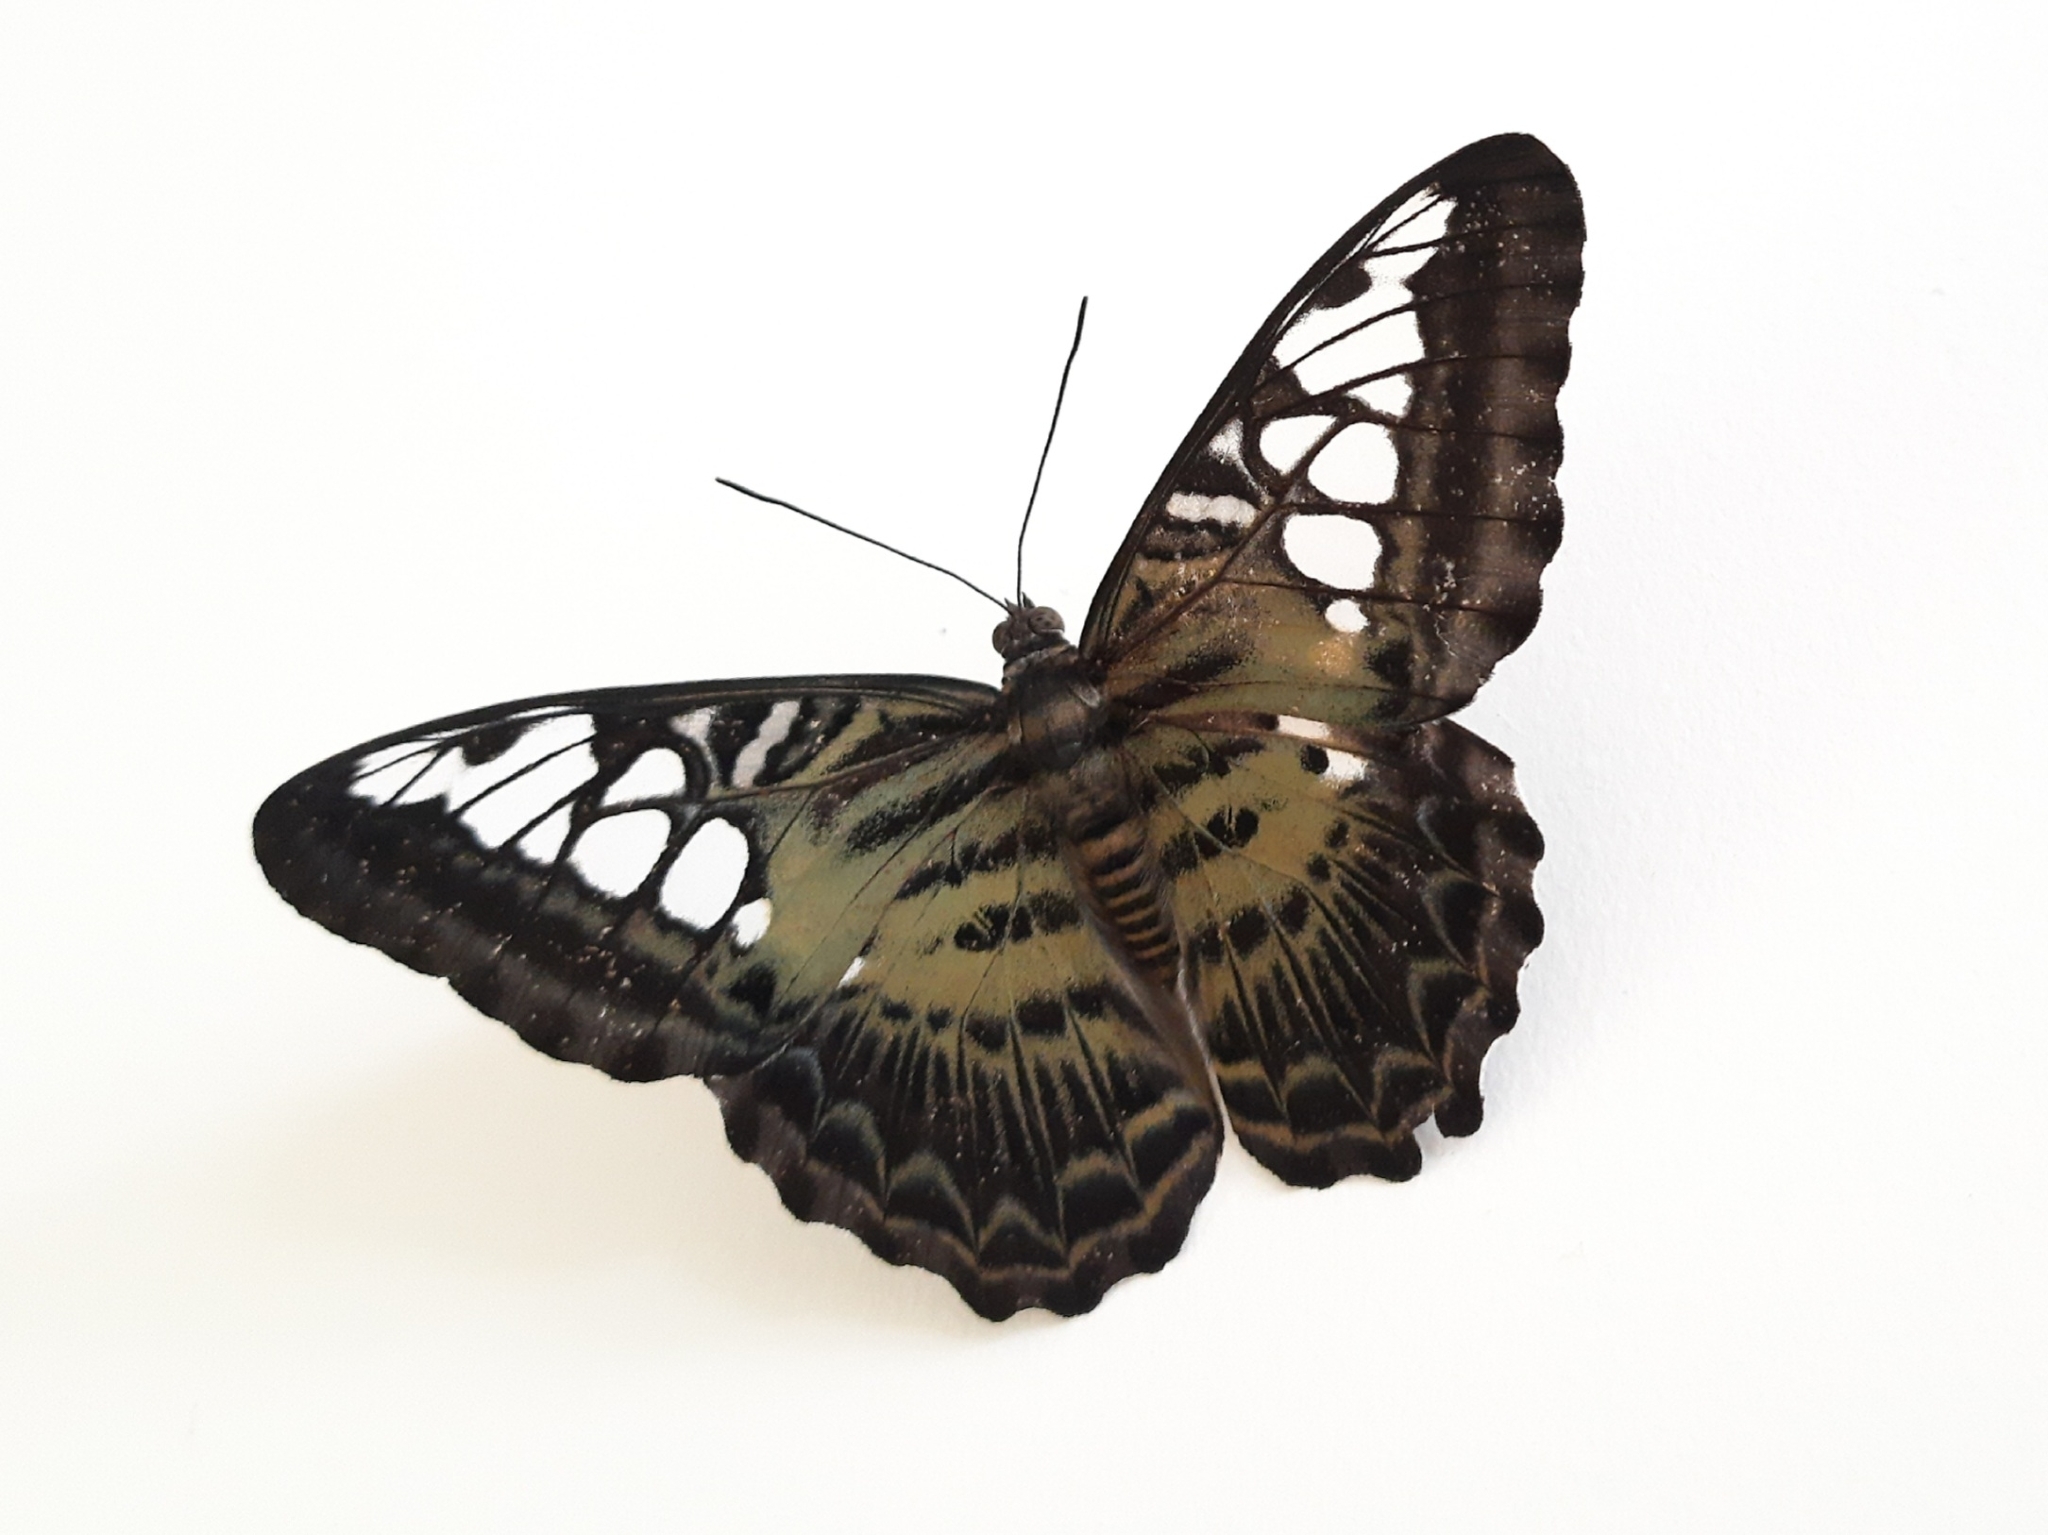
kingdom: Animalia
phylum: Arthropoda
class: Insecta
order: Lepidoptera
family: Nymphalidae
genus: Kallima
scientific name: Kallima sylvia
